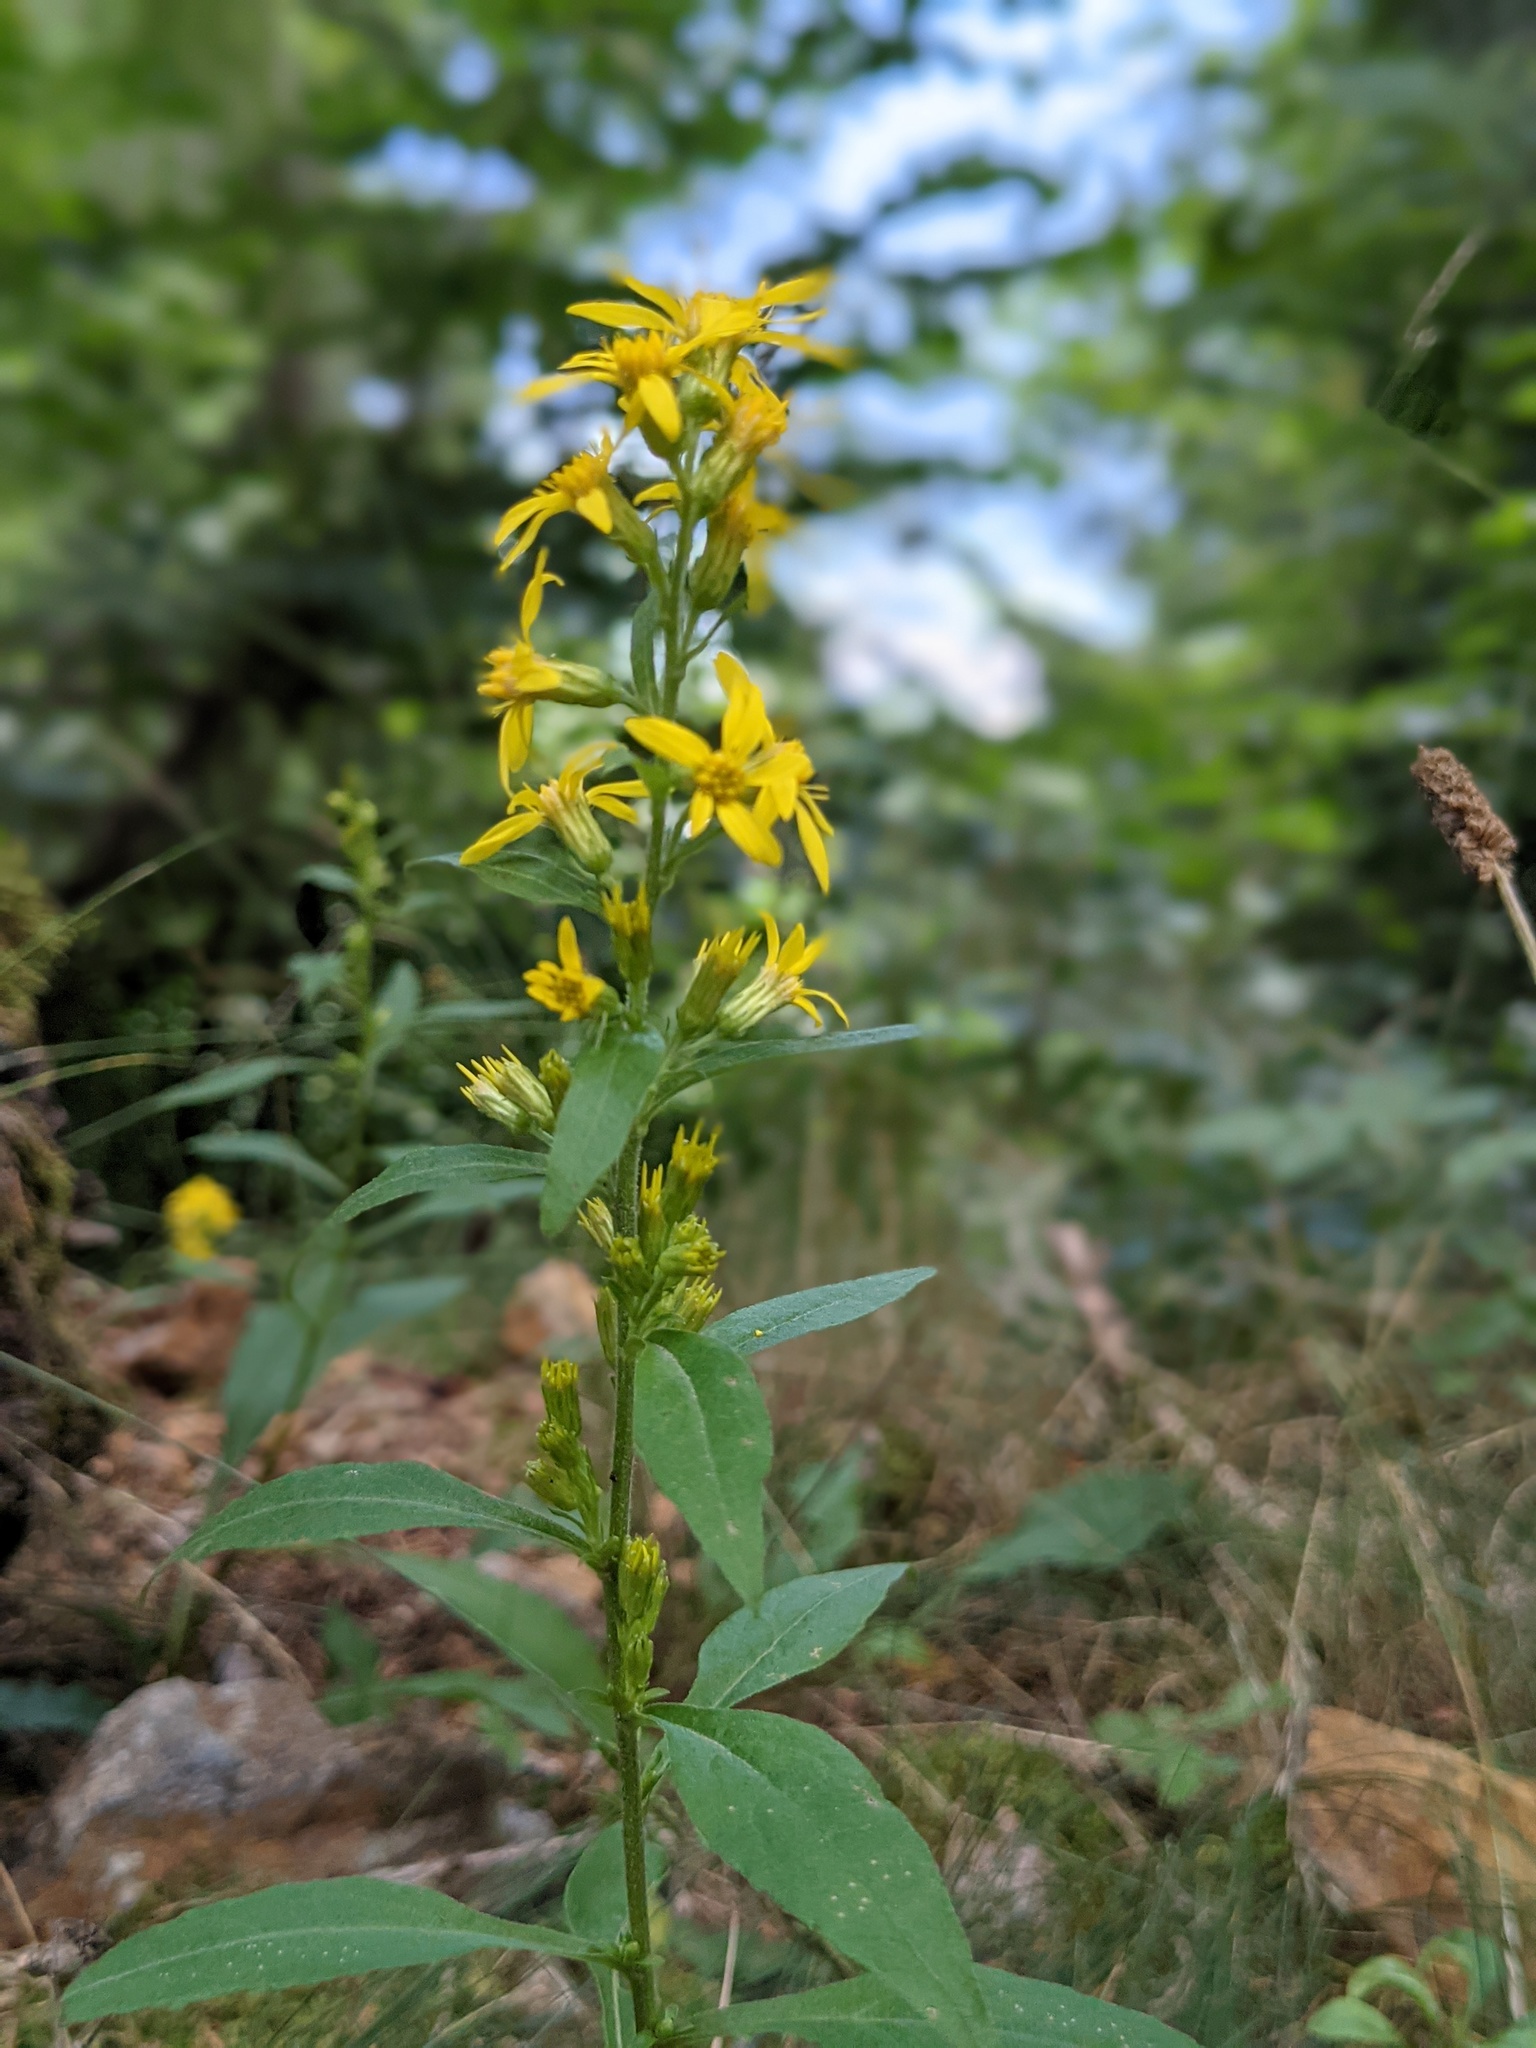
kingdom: Plantae
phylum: Tracheophyta
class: Magnoliopsida
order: Asterales
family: Asteraceae
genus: Solidago
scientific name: Solidago virgaurea
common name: Goldenrod
